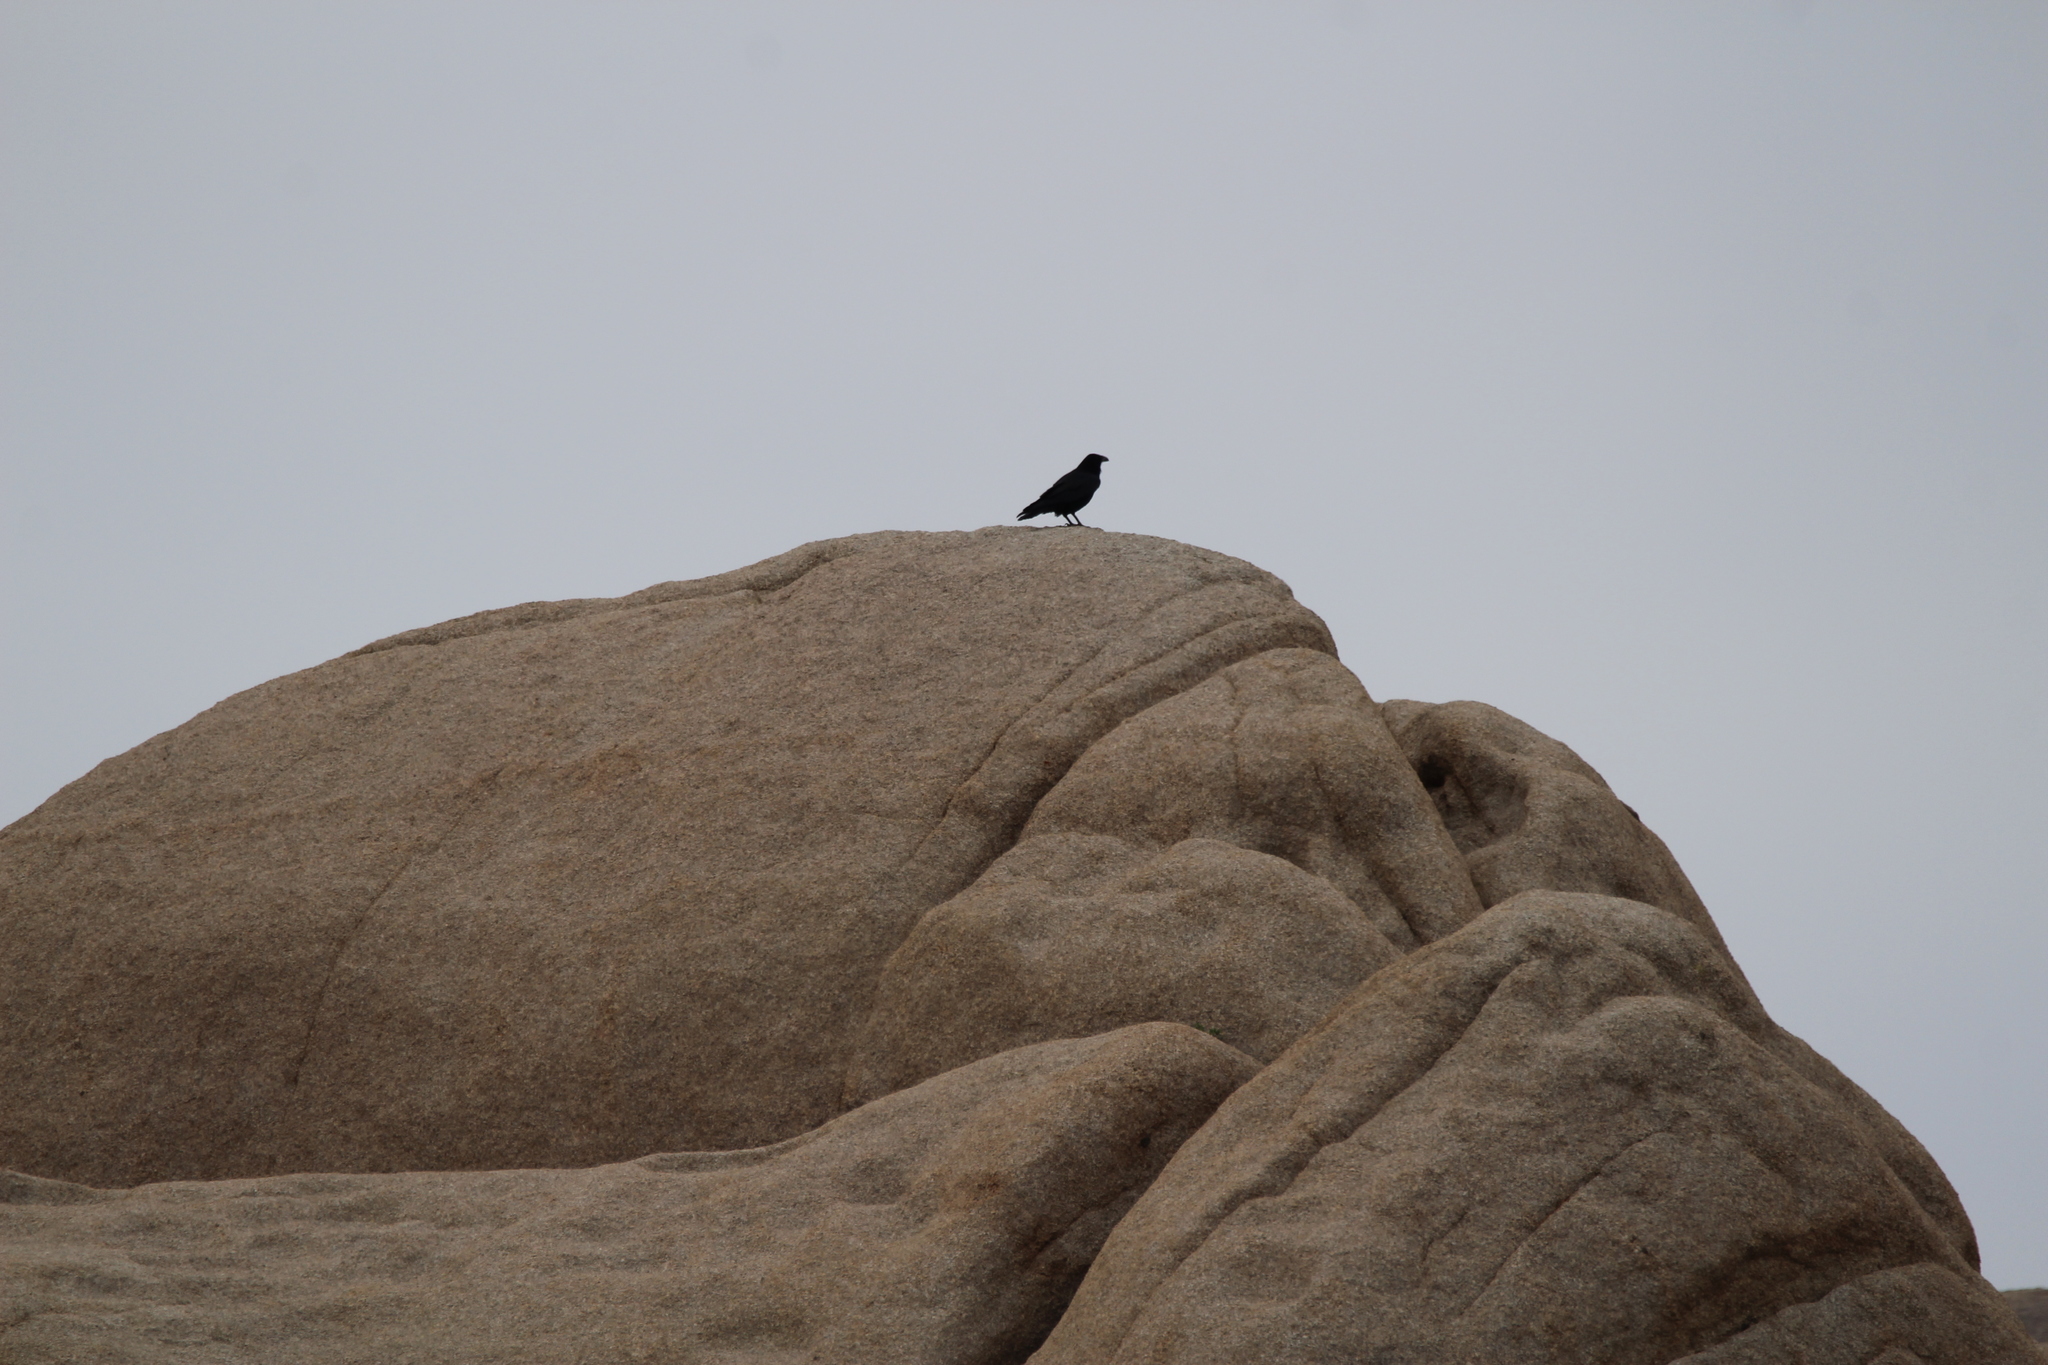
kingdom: Animalia
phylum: Chordata
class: Aves
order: Passeriformes
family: Corvidae
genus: Corvus
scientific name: Corvus corax
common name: Common raven
